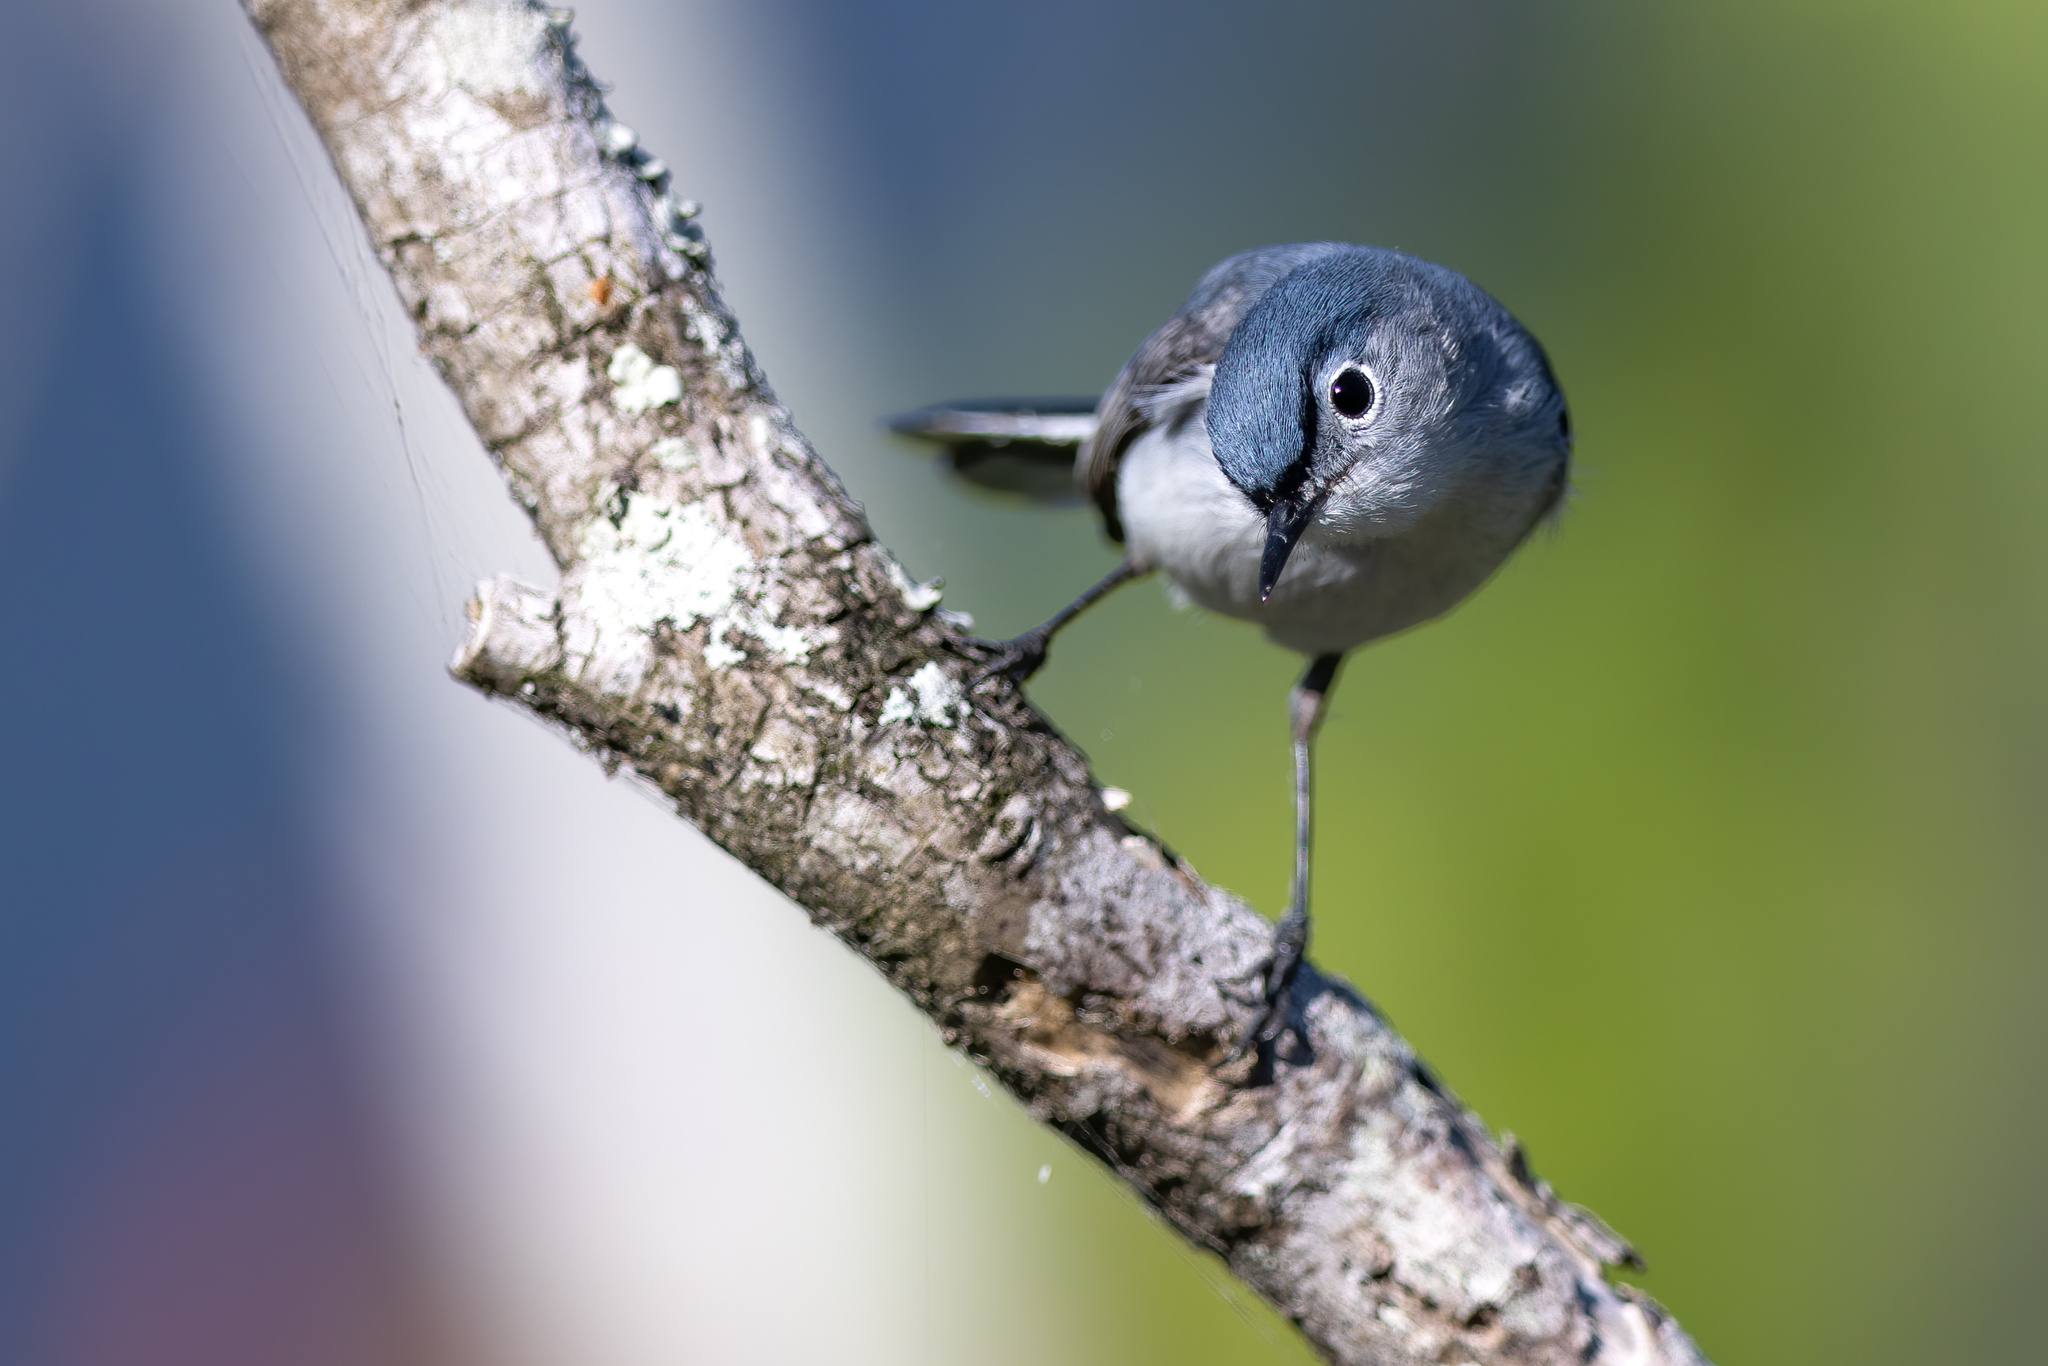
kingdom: Animalia
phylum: Chordata
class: Aves
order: Passeriformes
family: Polioptilidae
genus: Polioptila
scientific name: Polioptila caerulea
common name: Blue-gray gnatcatcher
